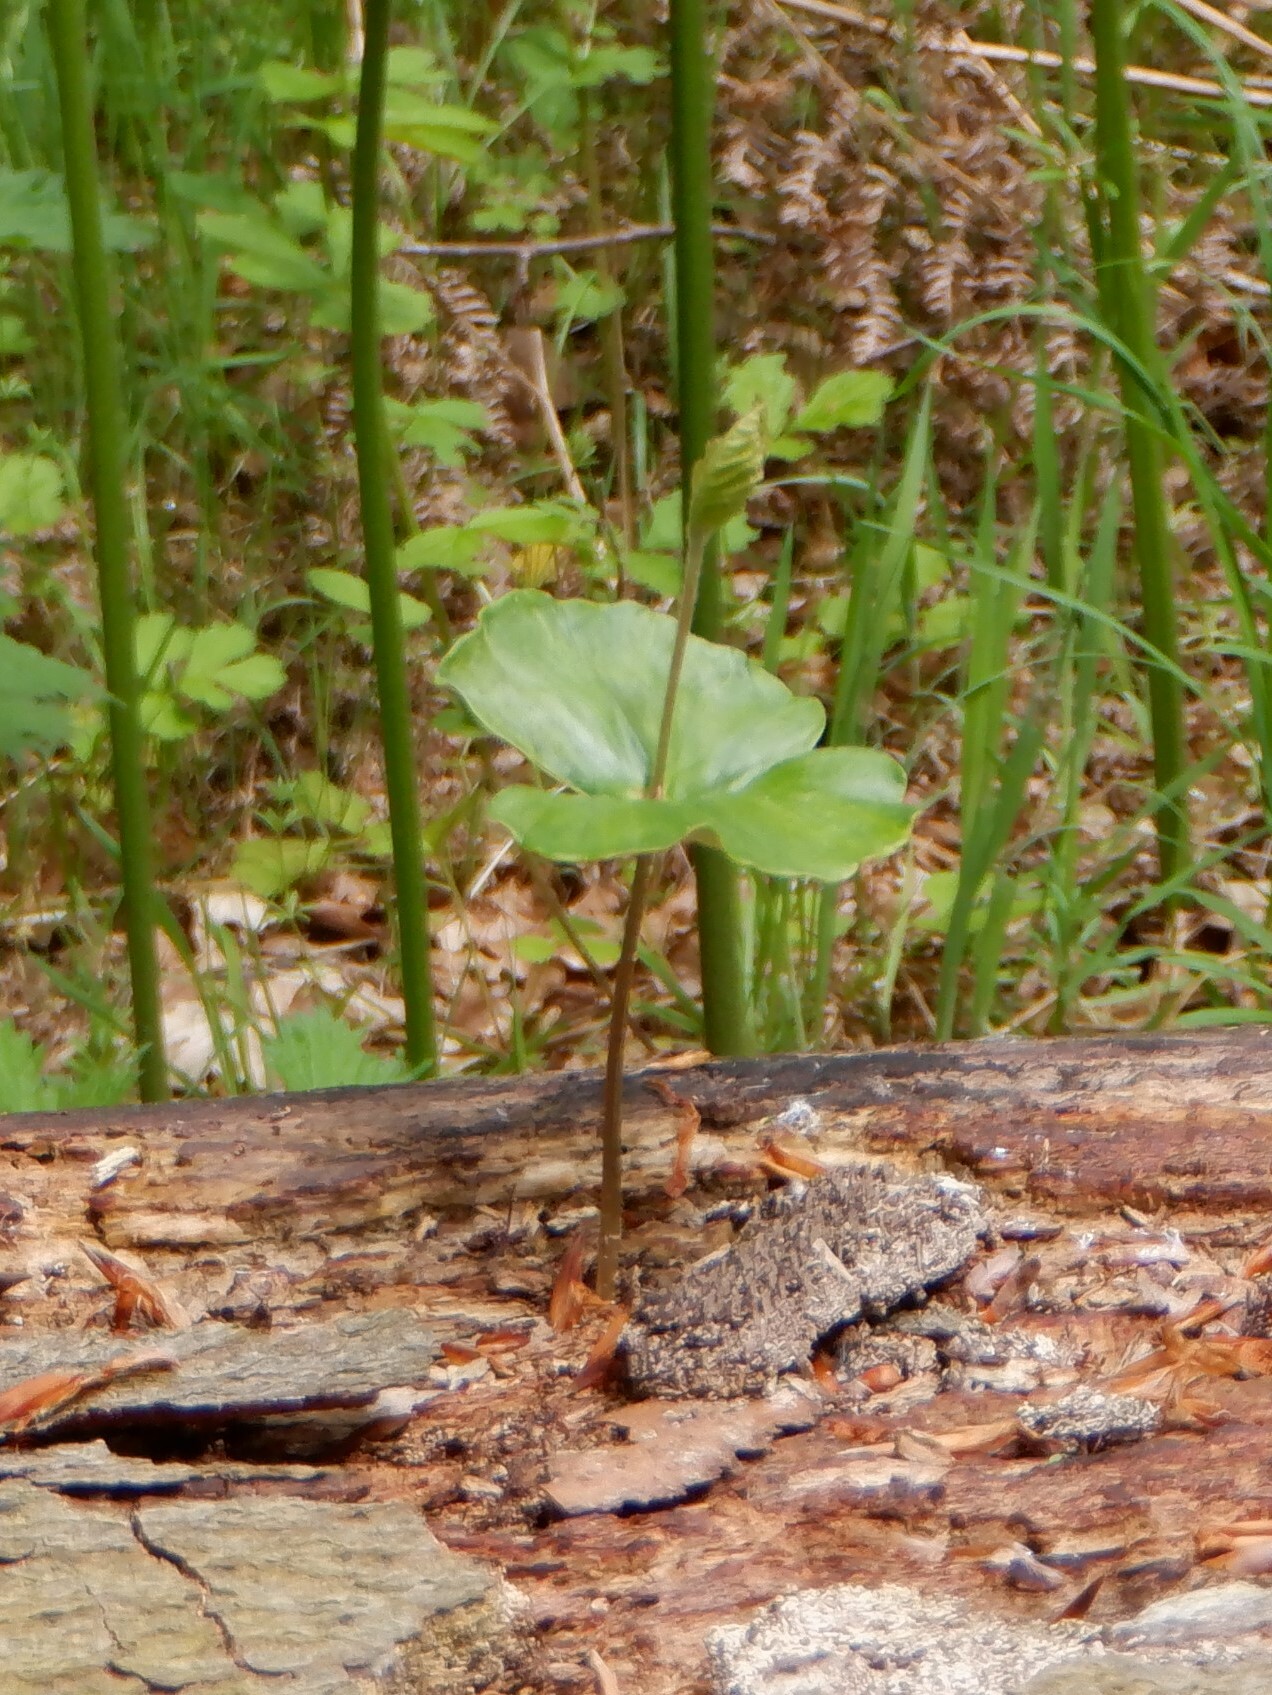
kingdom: Plantae
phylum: Tracheophyta
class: Magnoliopsida
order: Fagales
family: Fagaceae
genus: Fagus
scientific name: Fagus sylvatica
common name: Beech
